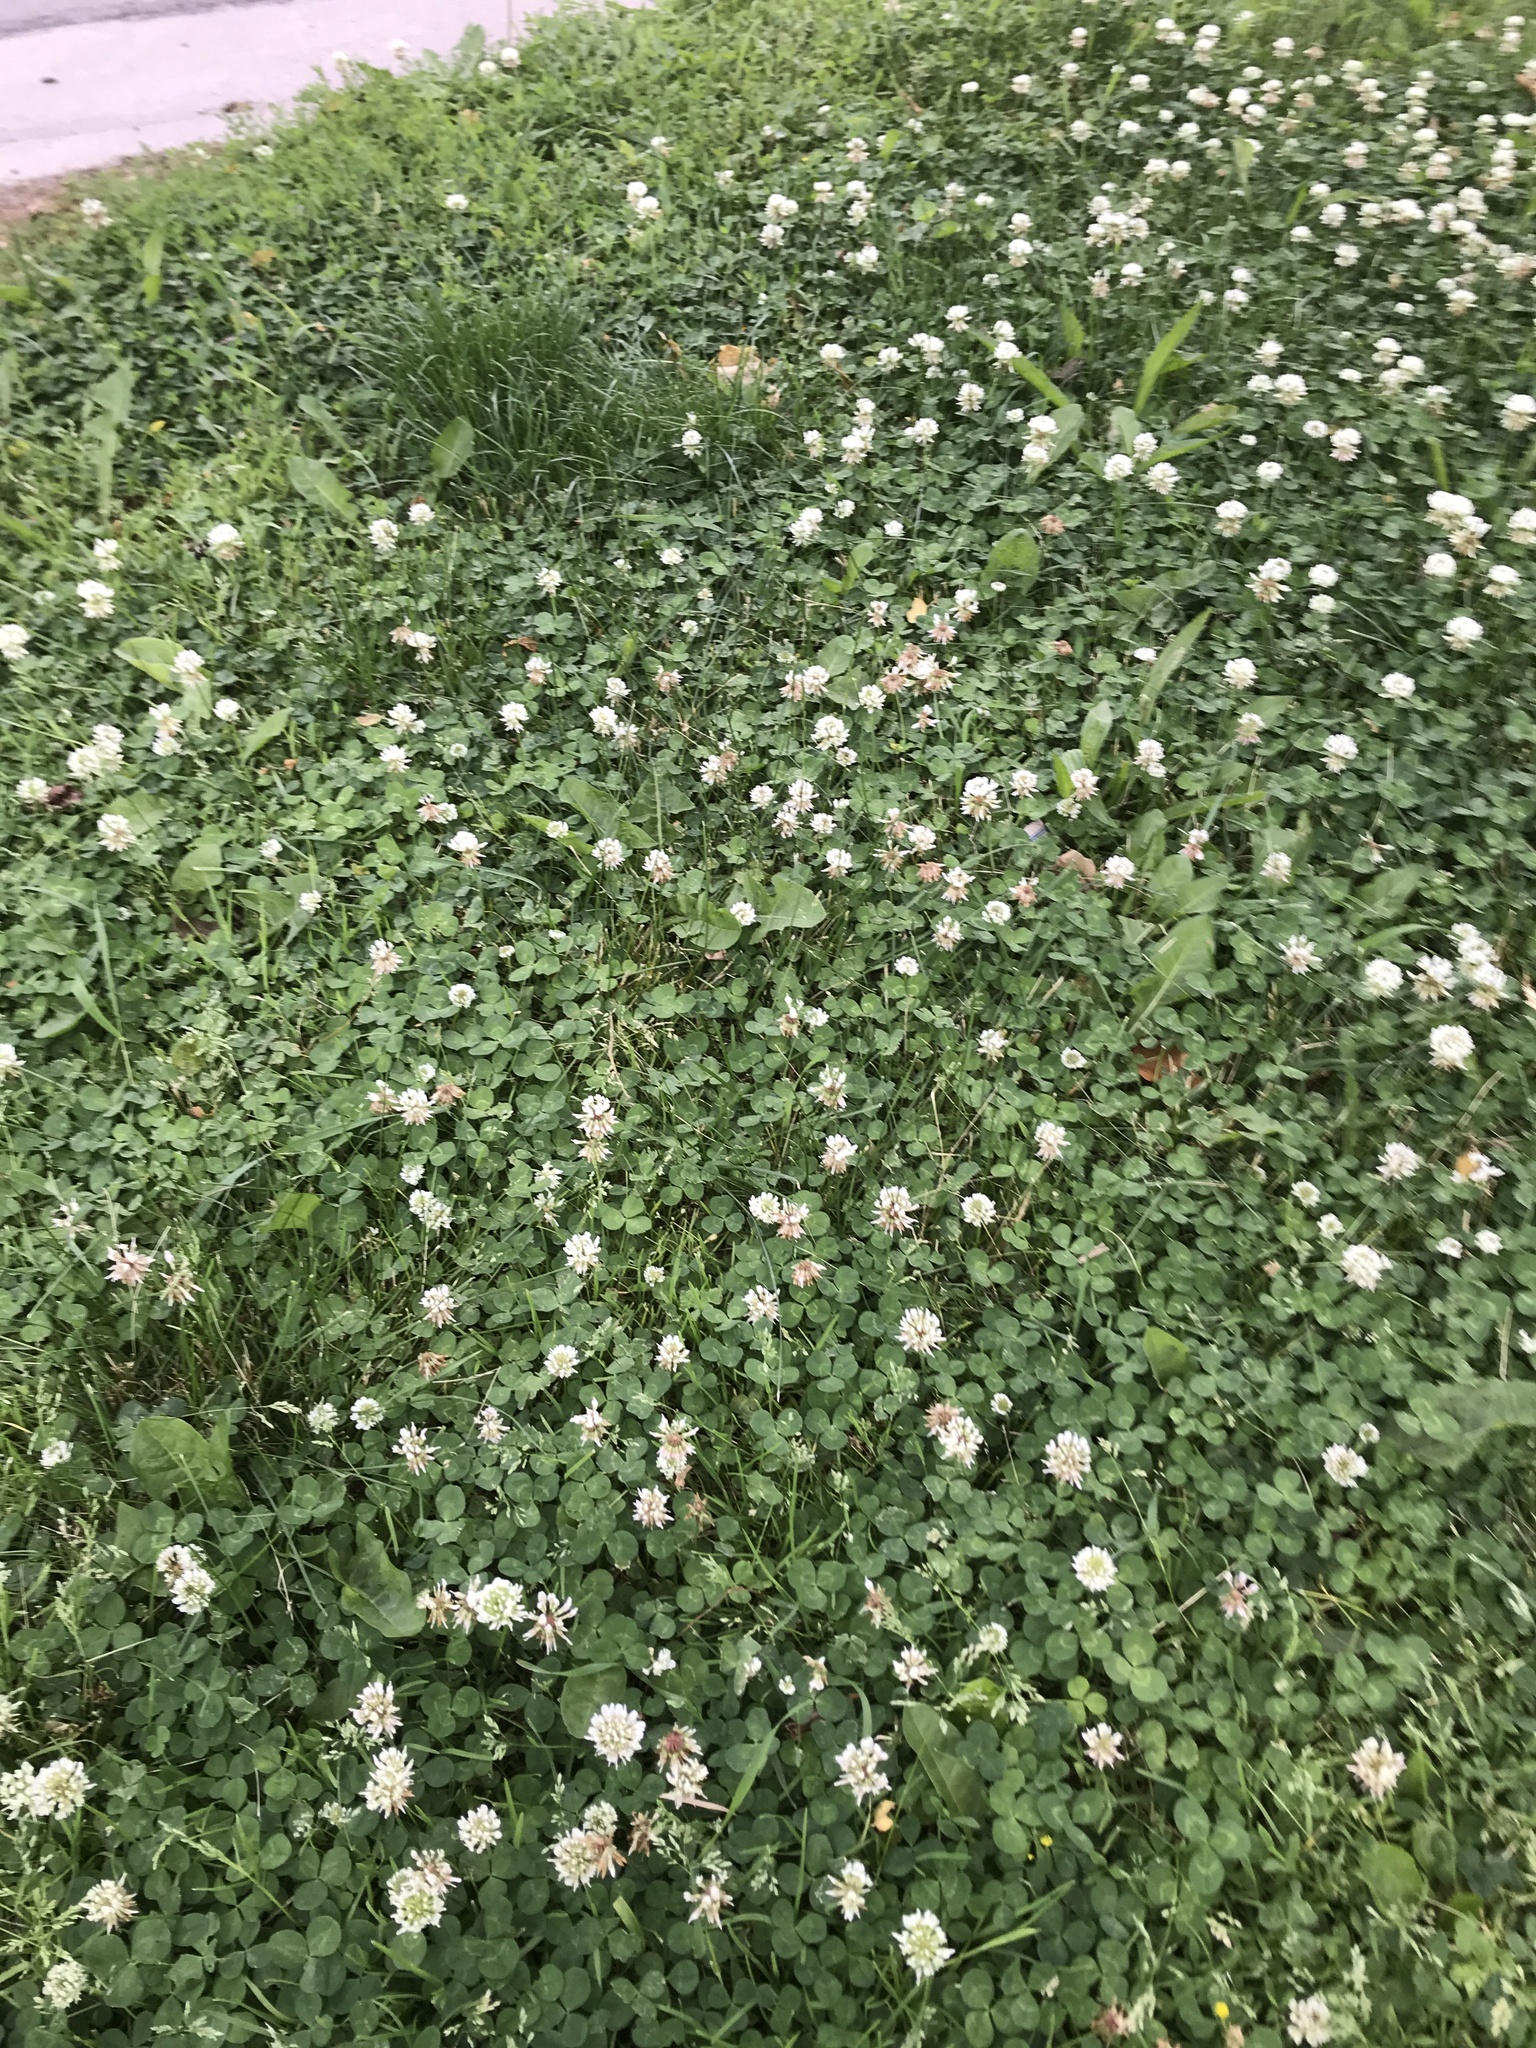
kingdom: Plantae
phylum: Tracheophyta
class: Magnoliopsida
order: Fabales
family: Fabaceae
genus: Trifolium
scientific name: Trifolium repens
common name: White clover
